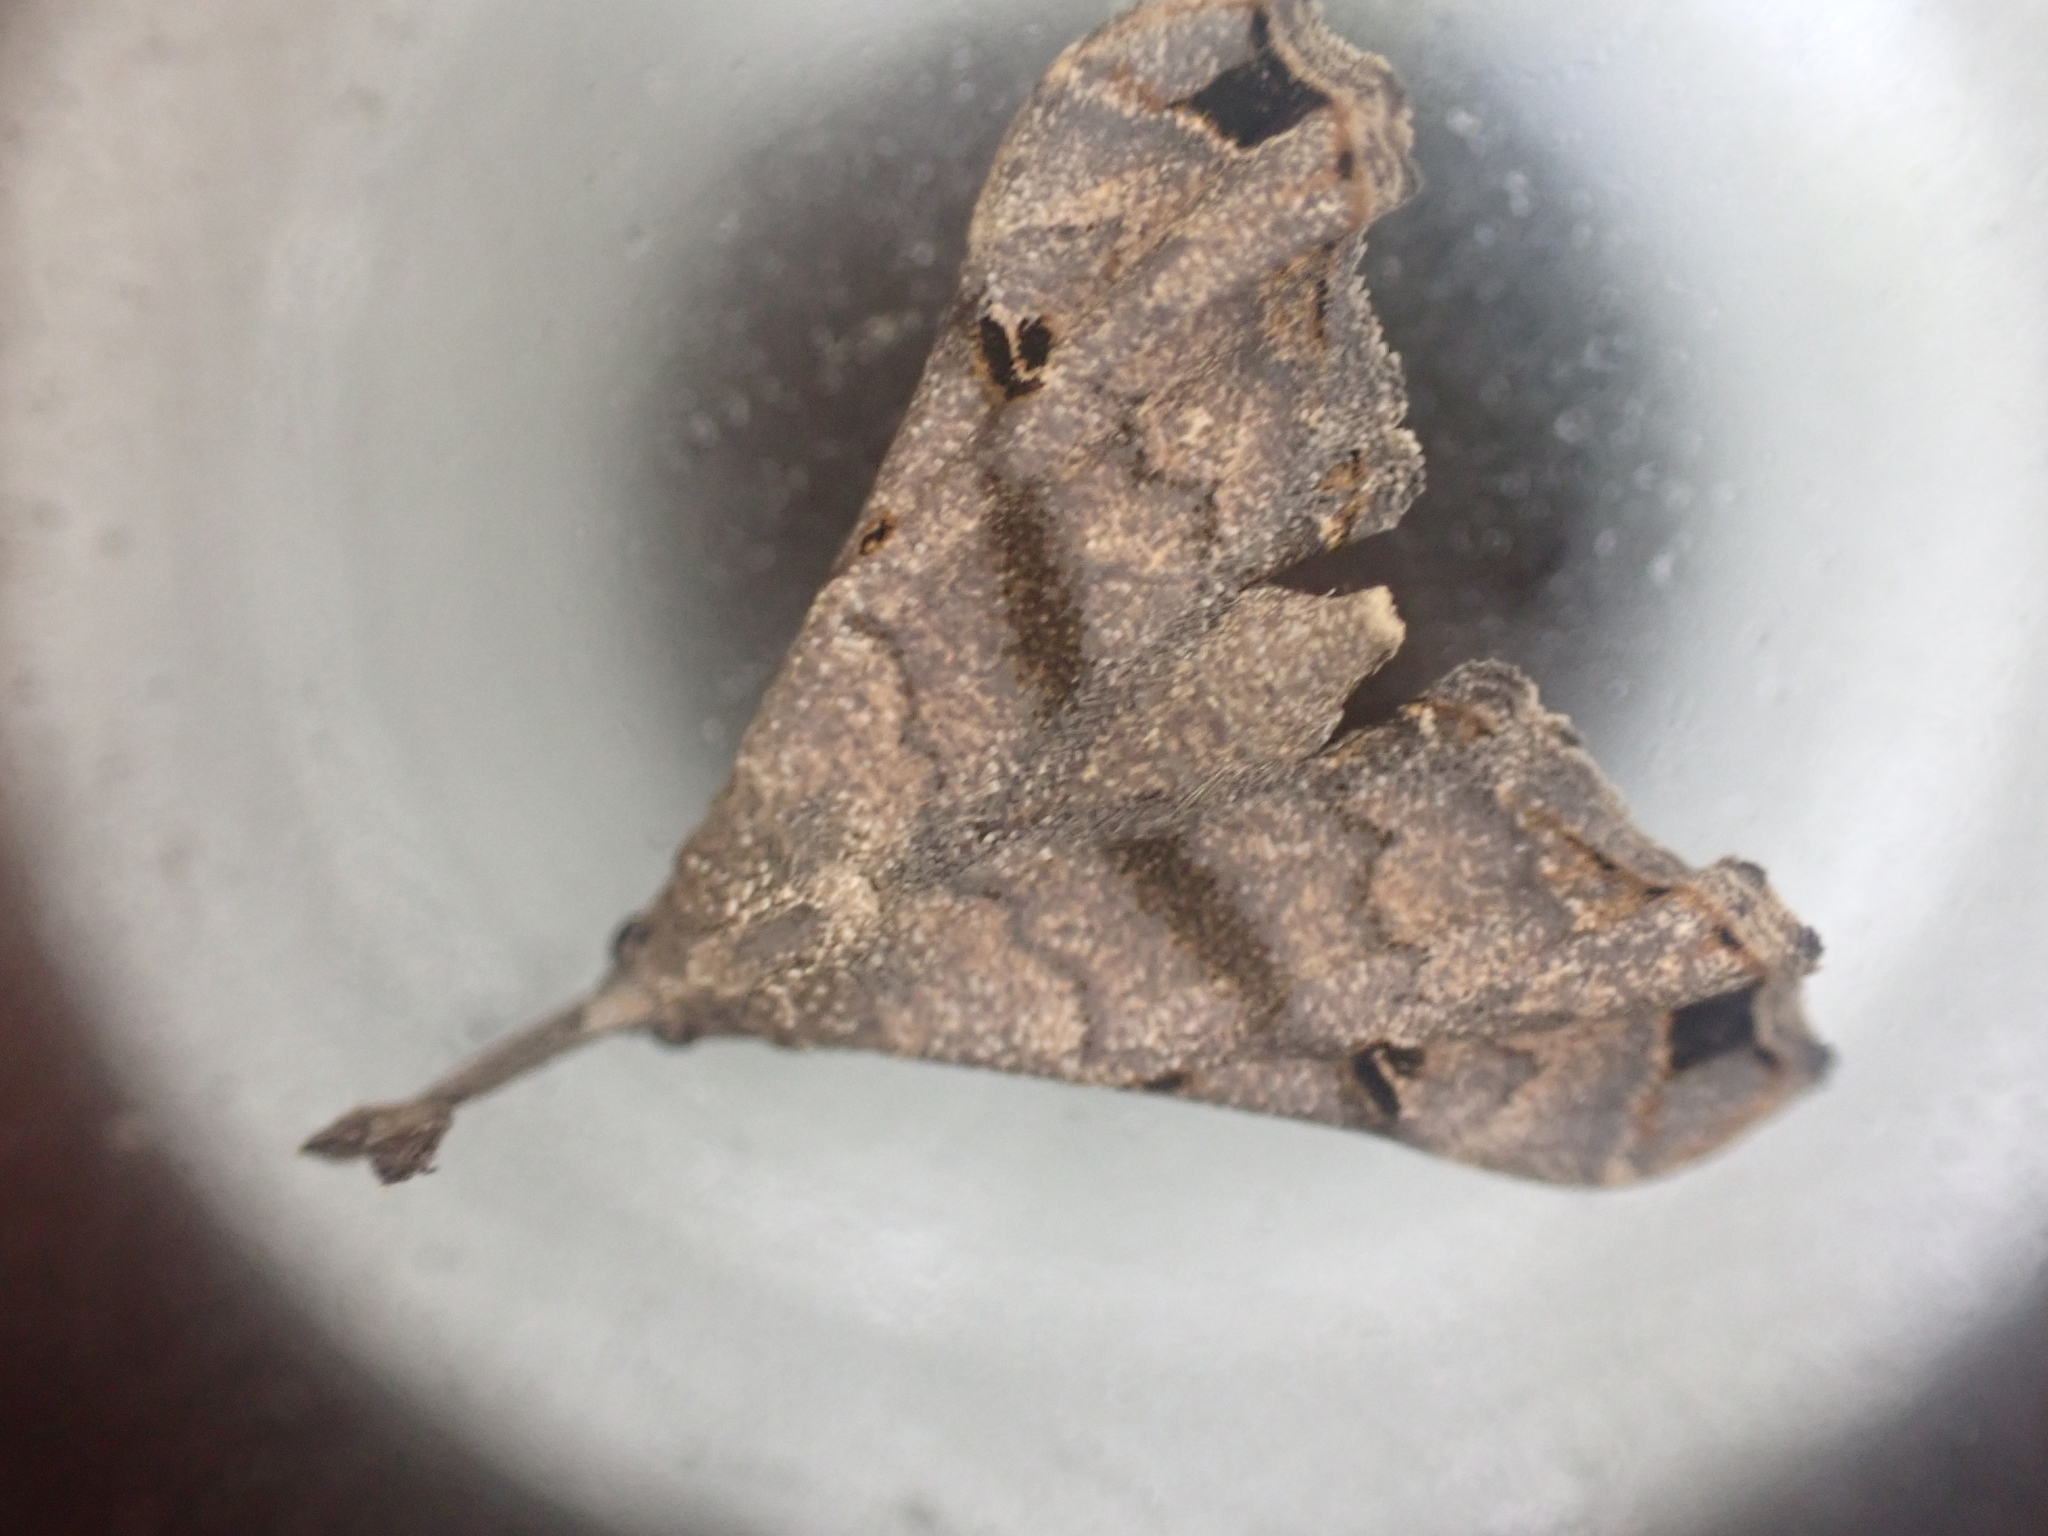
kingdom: Animalia
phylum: Arthropoda
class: Insecta
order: Lepidoptera
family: Erebidae
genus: Palthis
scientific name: Palthis asopialis
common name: Faint-spotted palthis moth
